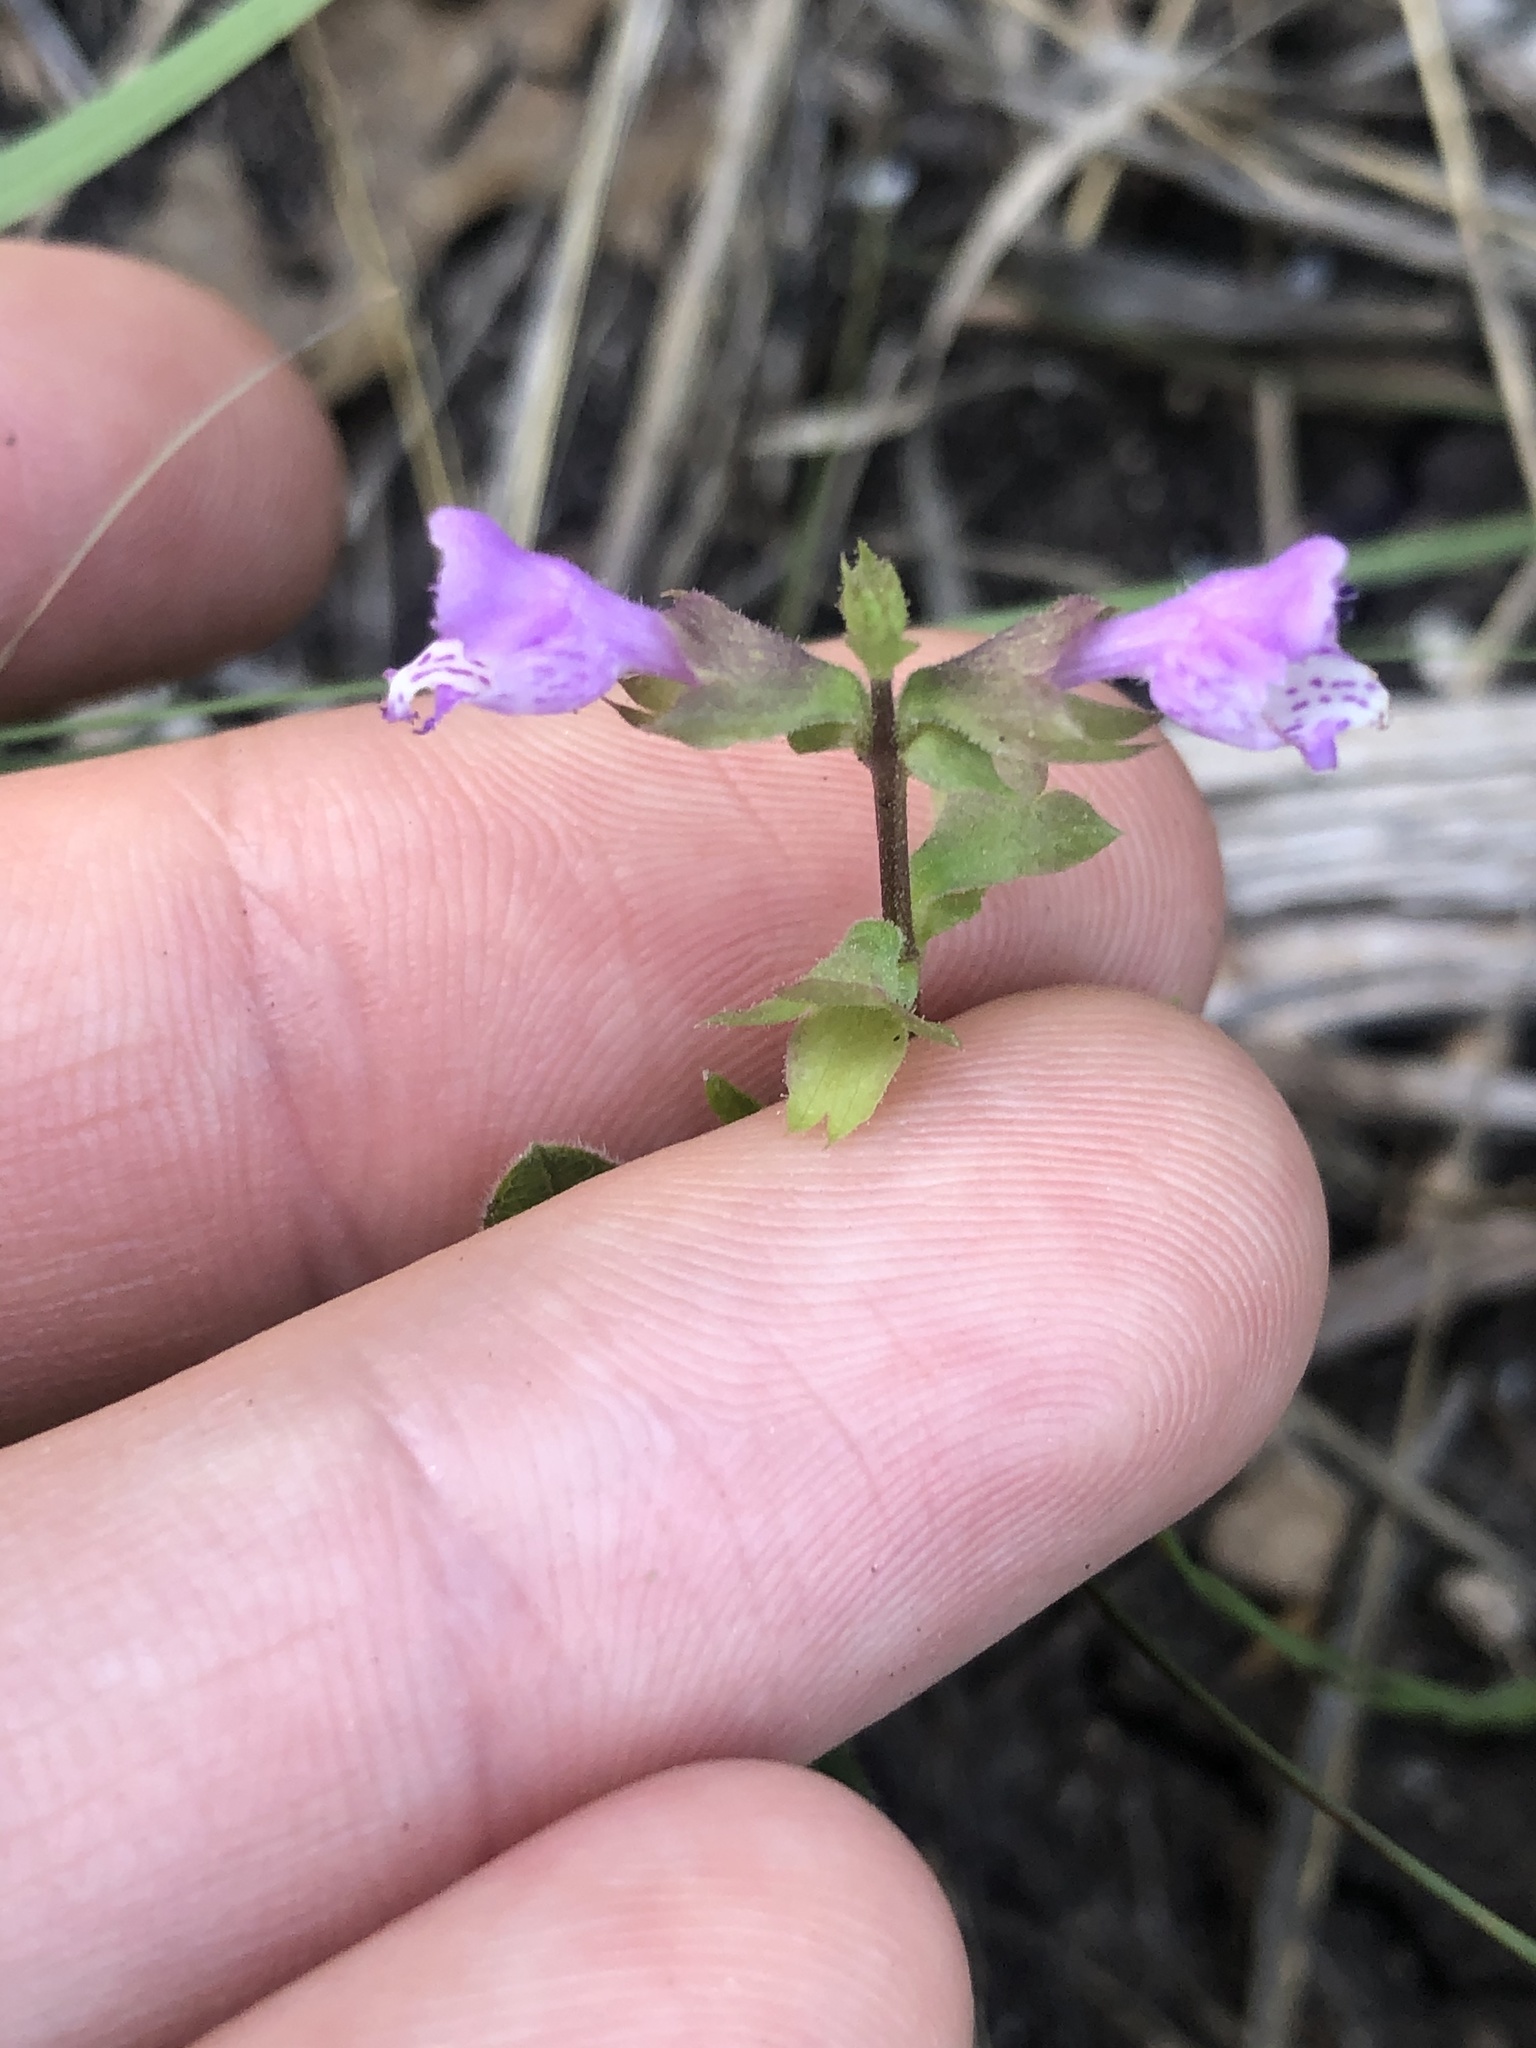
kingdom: Plantae
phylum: Tracheophyta
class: Magnoliopsida
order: Lamiales
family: Lamiaceae
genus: Warnockia
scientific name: Warnockia scutellarioides
